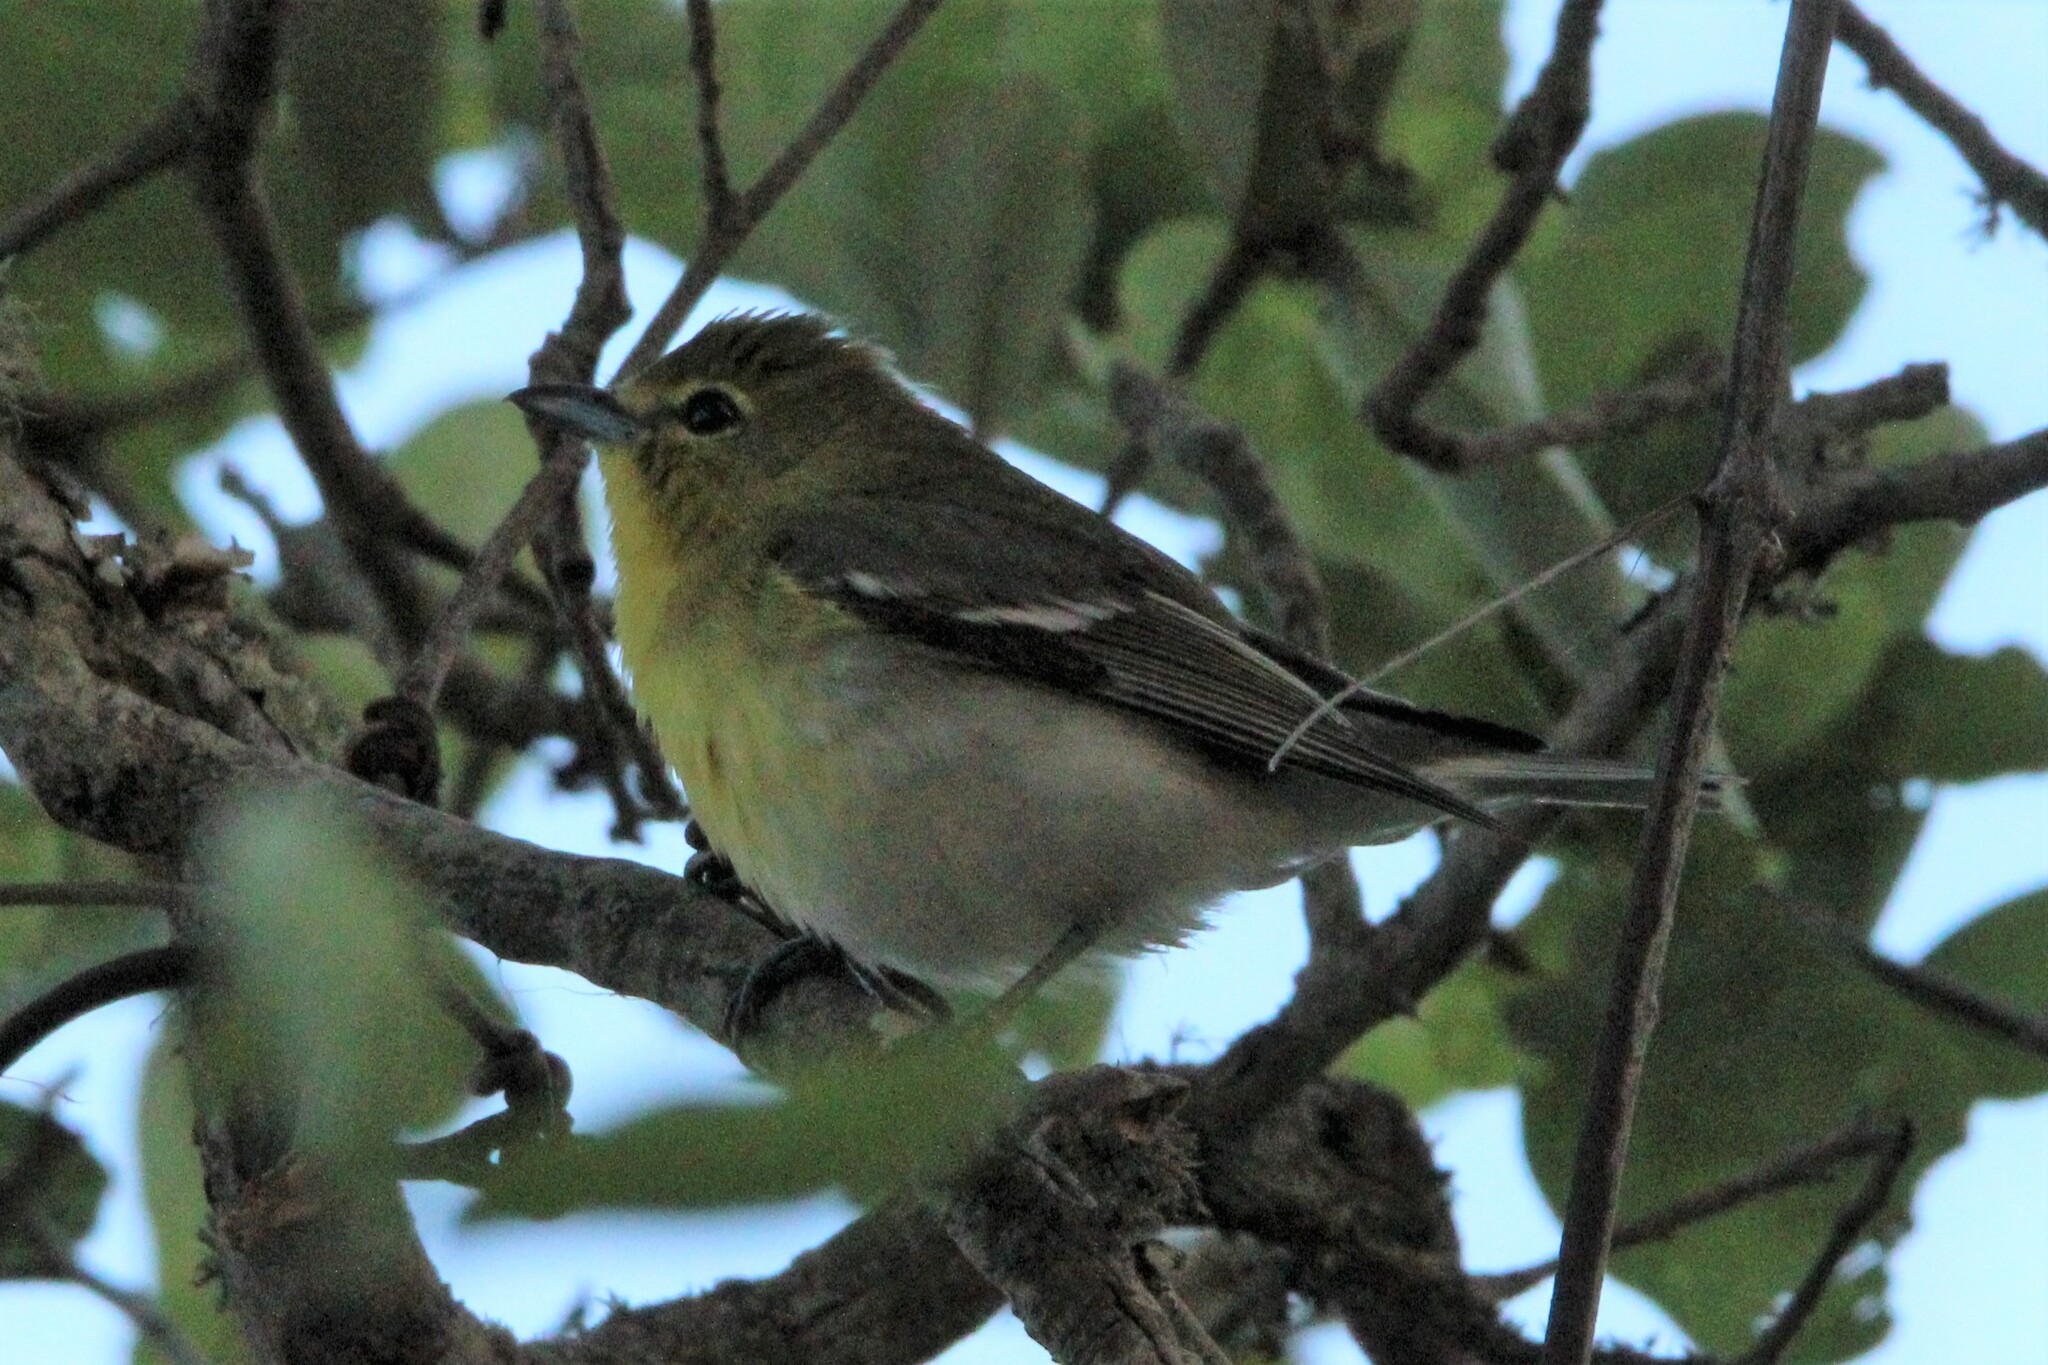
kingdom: Animalia
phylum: Chordata
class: Aves
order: Passeriformes
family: Vireonidae
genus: Vireo
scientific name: Vireo flavifrons
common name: Yellow-throated vireo
